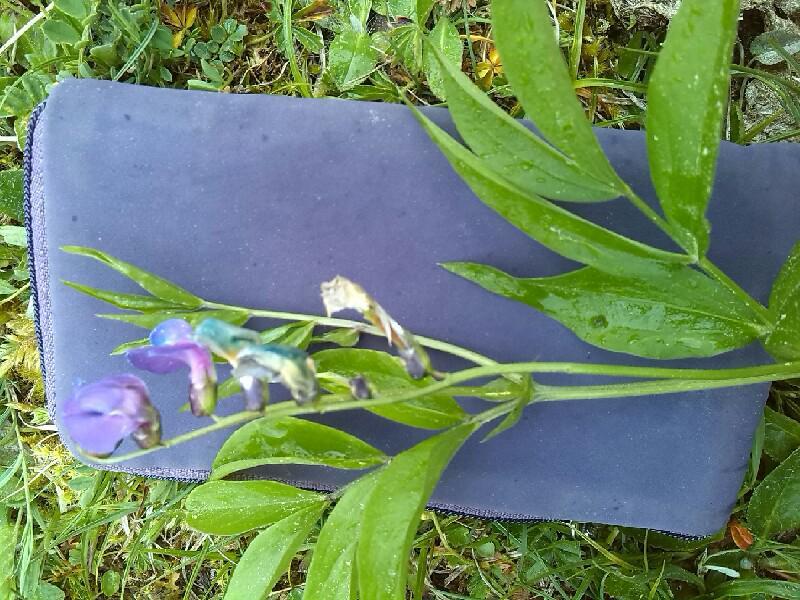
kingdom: Plantae
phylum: Tracheophyta
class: Magnoliopsida
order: Fabales
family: Fabaceae
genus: Lathyrus
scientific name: Lathyrus vernus
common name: Spring pea
